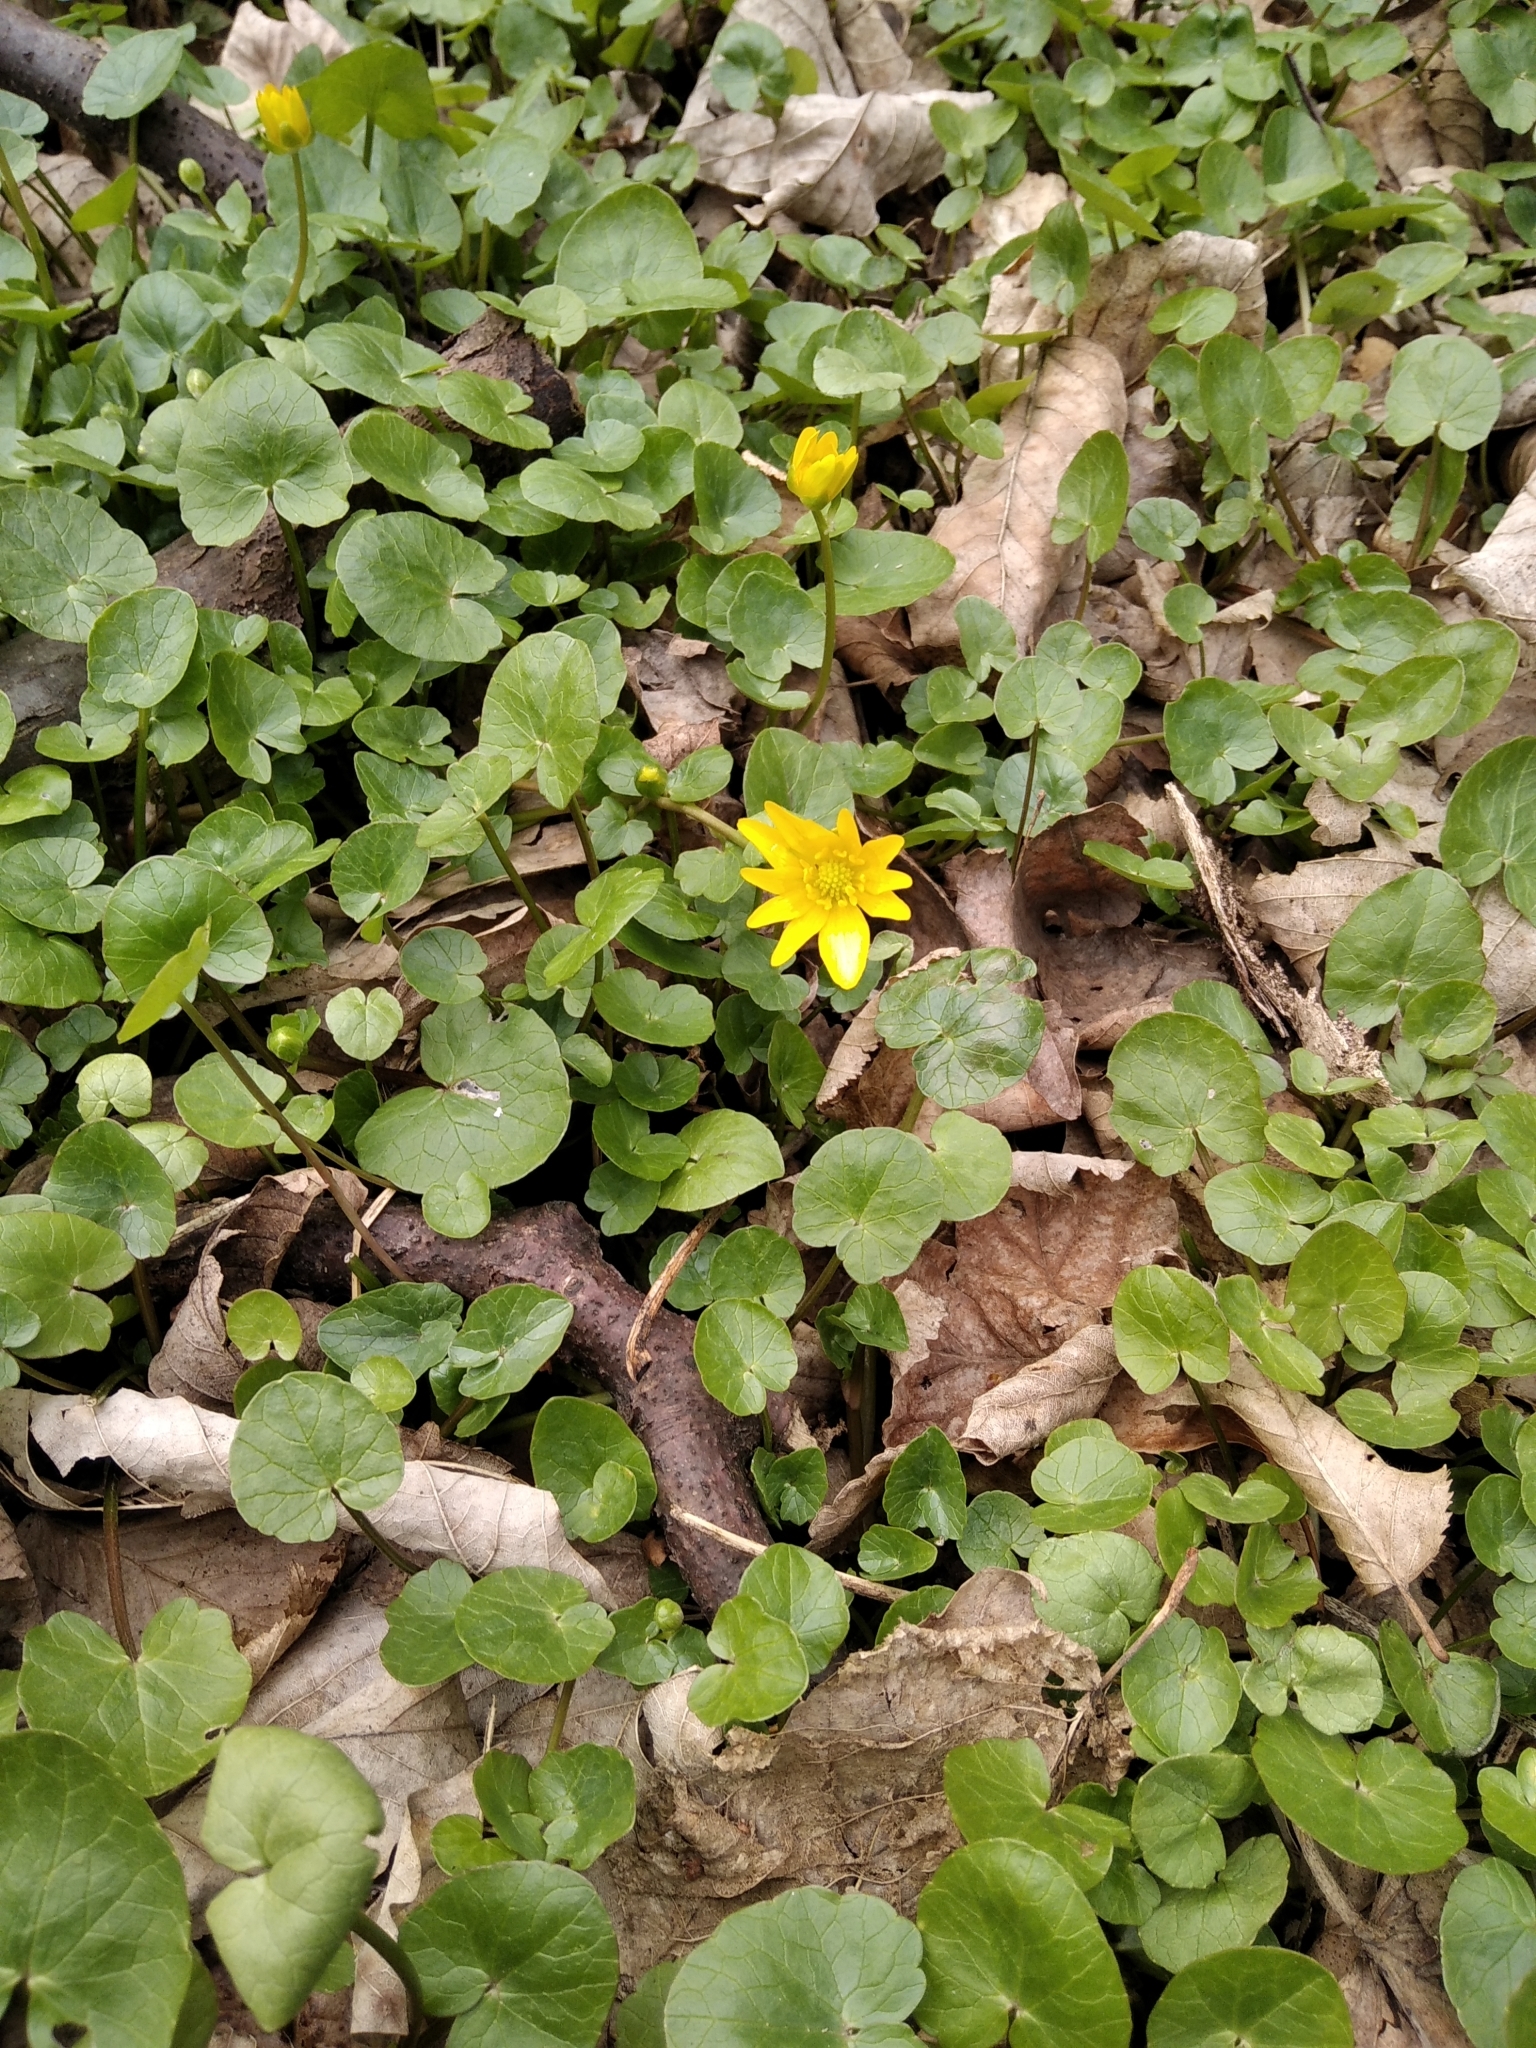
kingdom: Plantae
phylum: Tracheophyta
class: Magnoliopsida
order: Ranunculales
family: Ranunculaceae
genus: Ficaria
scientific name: Ficaria verna
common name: Lesser celandine
